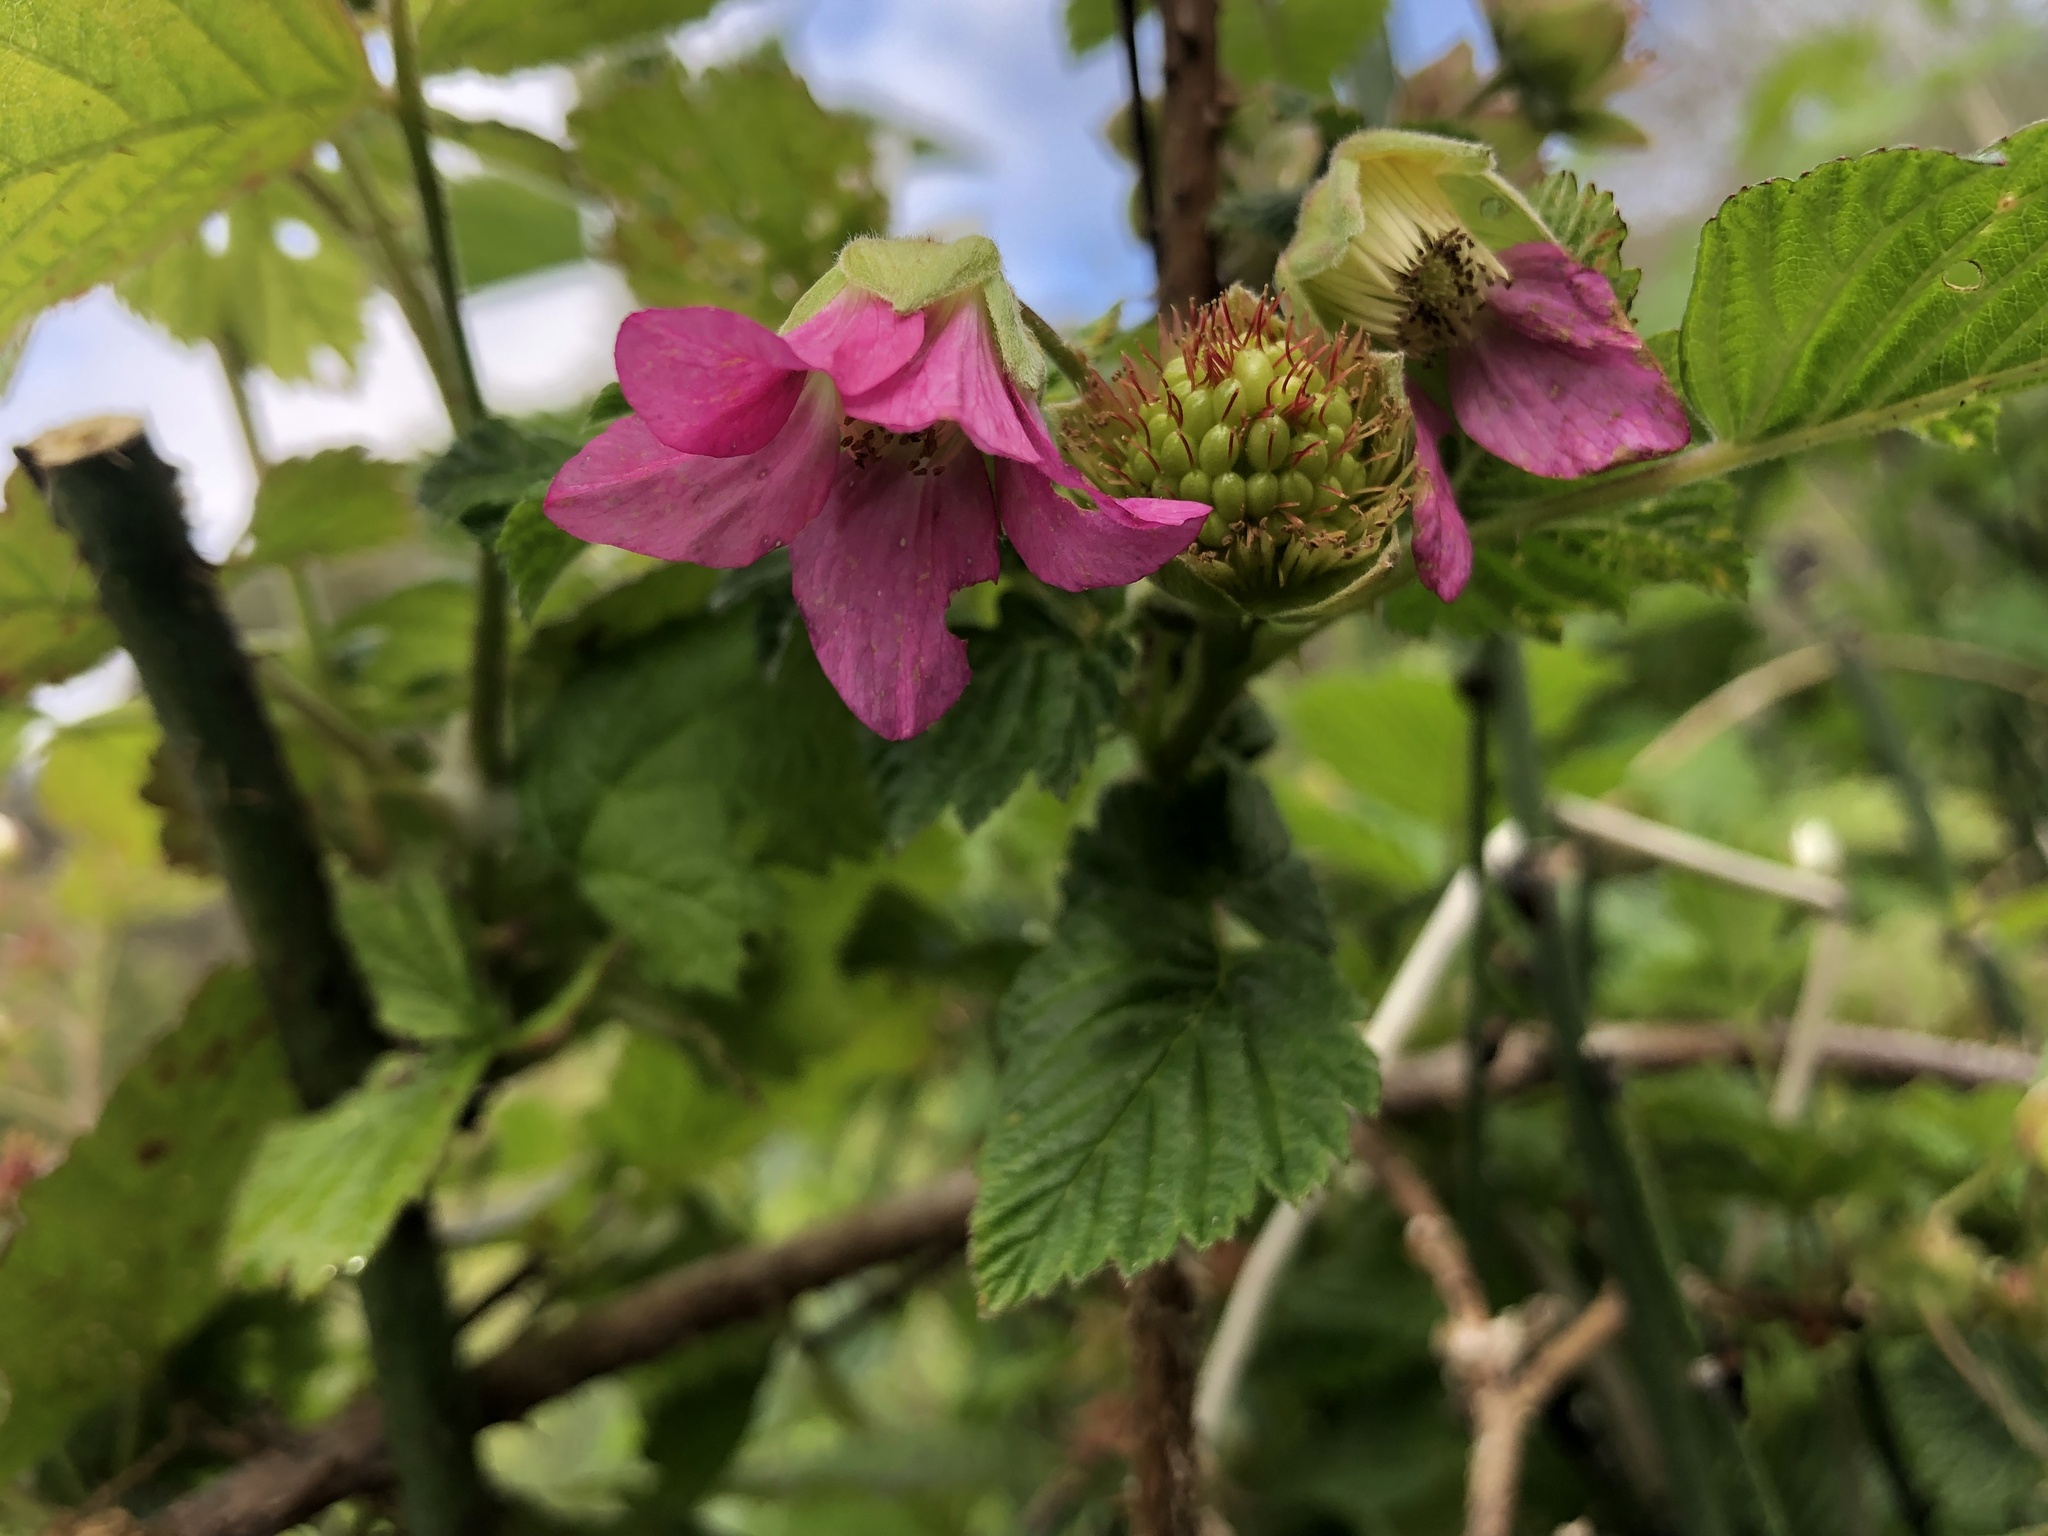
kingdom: Plantae
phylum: Tracheophyta
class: Magnoliopsida
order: Rosales
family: Rosaceae
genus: Rubus
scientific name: Rubus spectabilis
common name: Salmonberry
